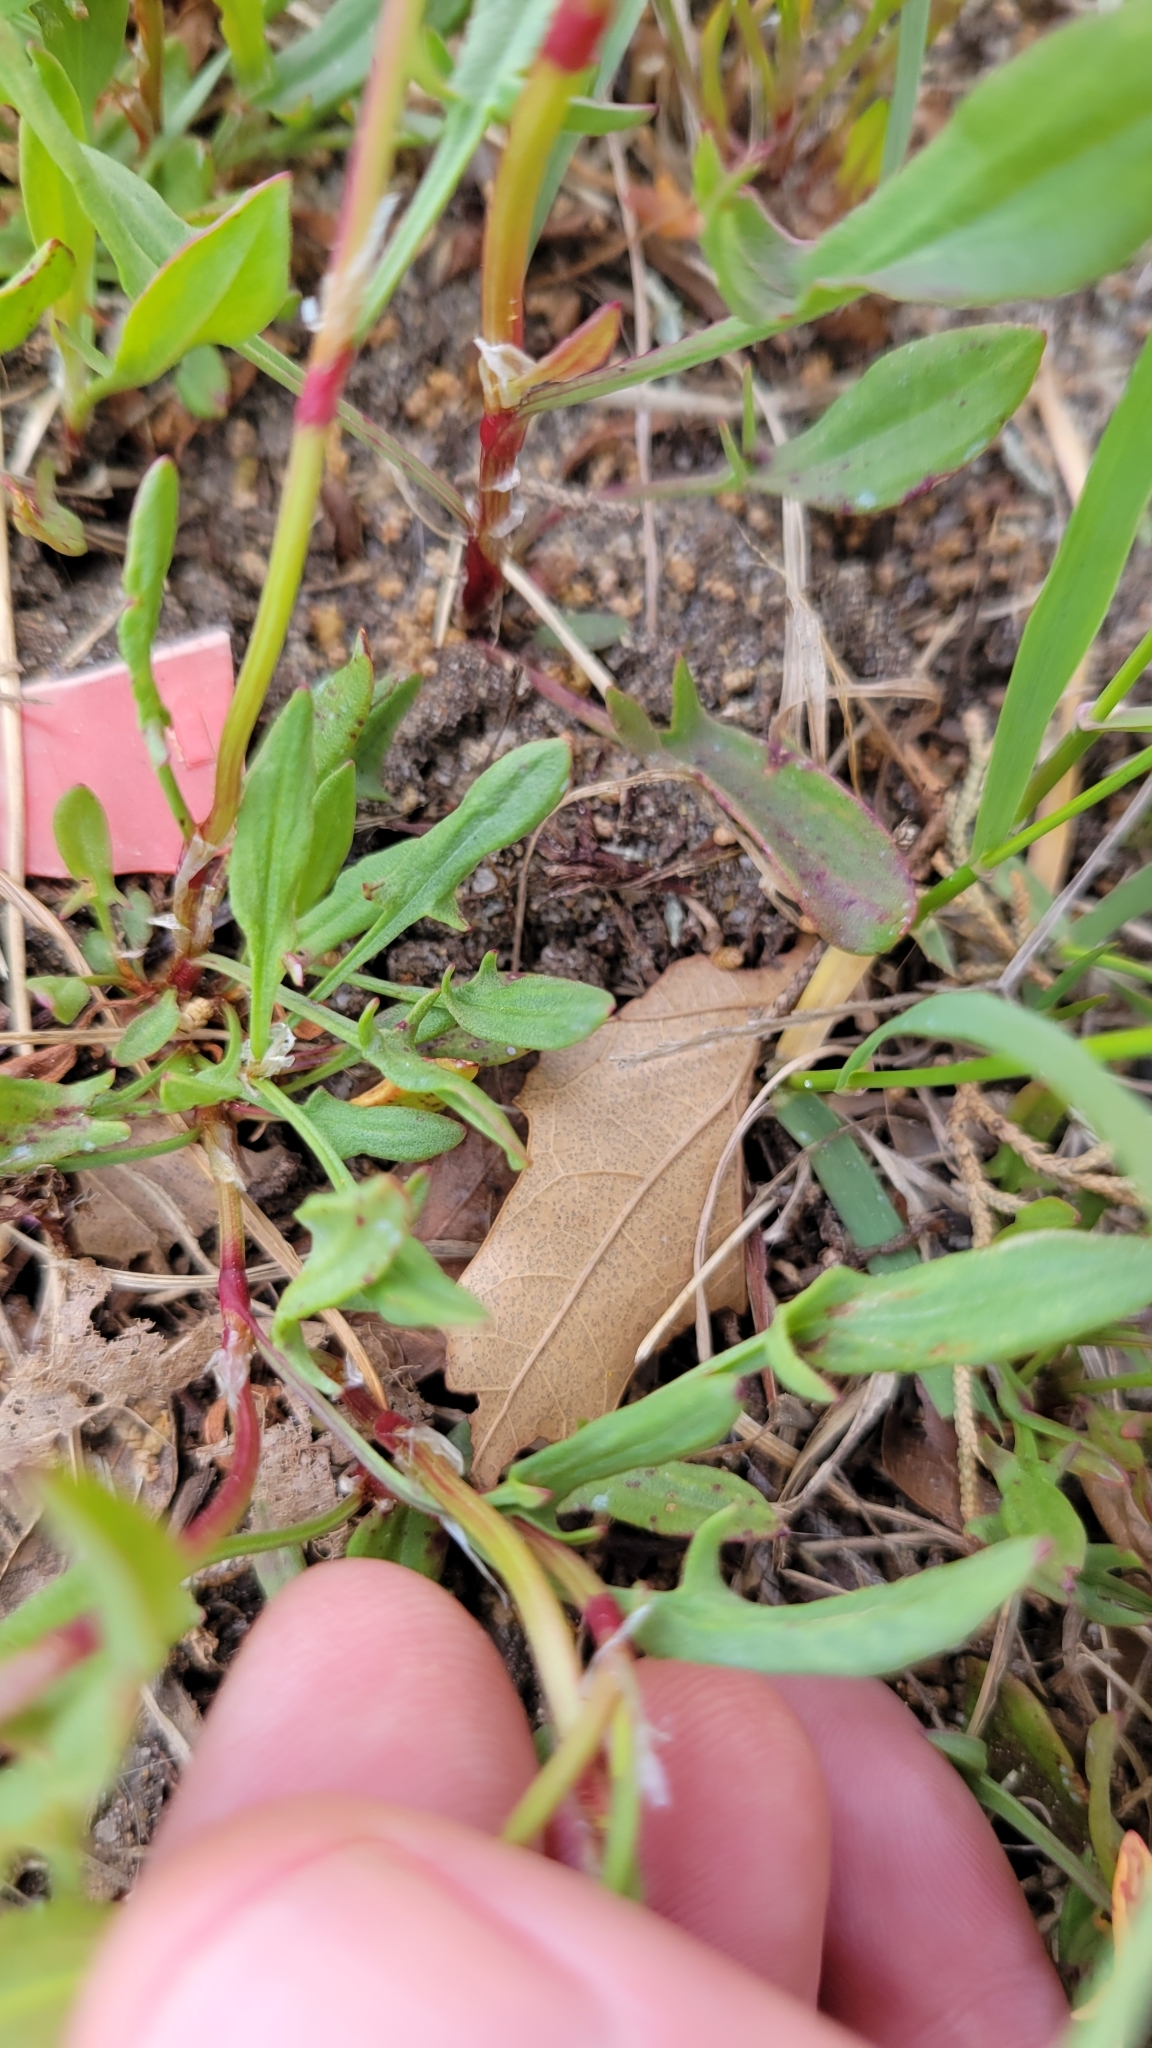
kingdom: Plantae
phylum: Tracheophyta
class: Magnoliopsida
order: Caryophyllales
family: Polygonaceae
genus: Rumex
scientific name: Rumex acetosella
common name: Common sheep sorrel
